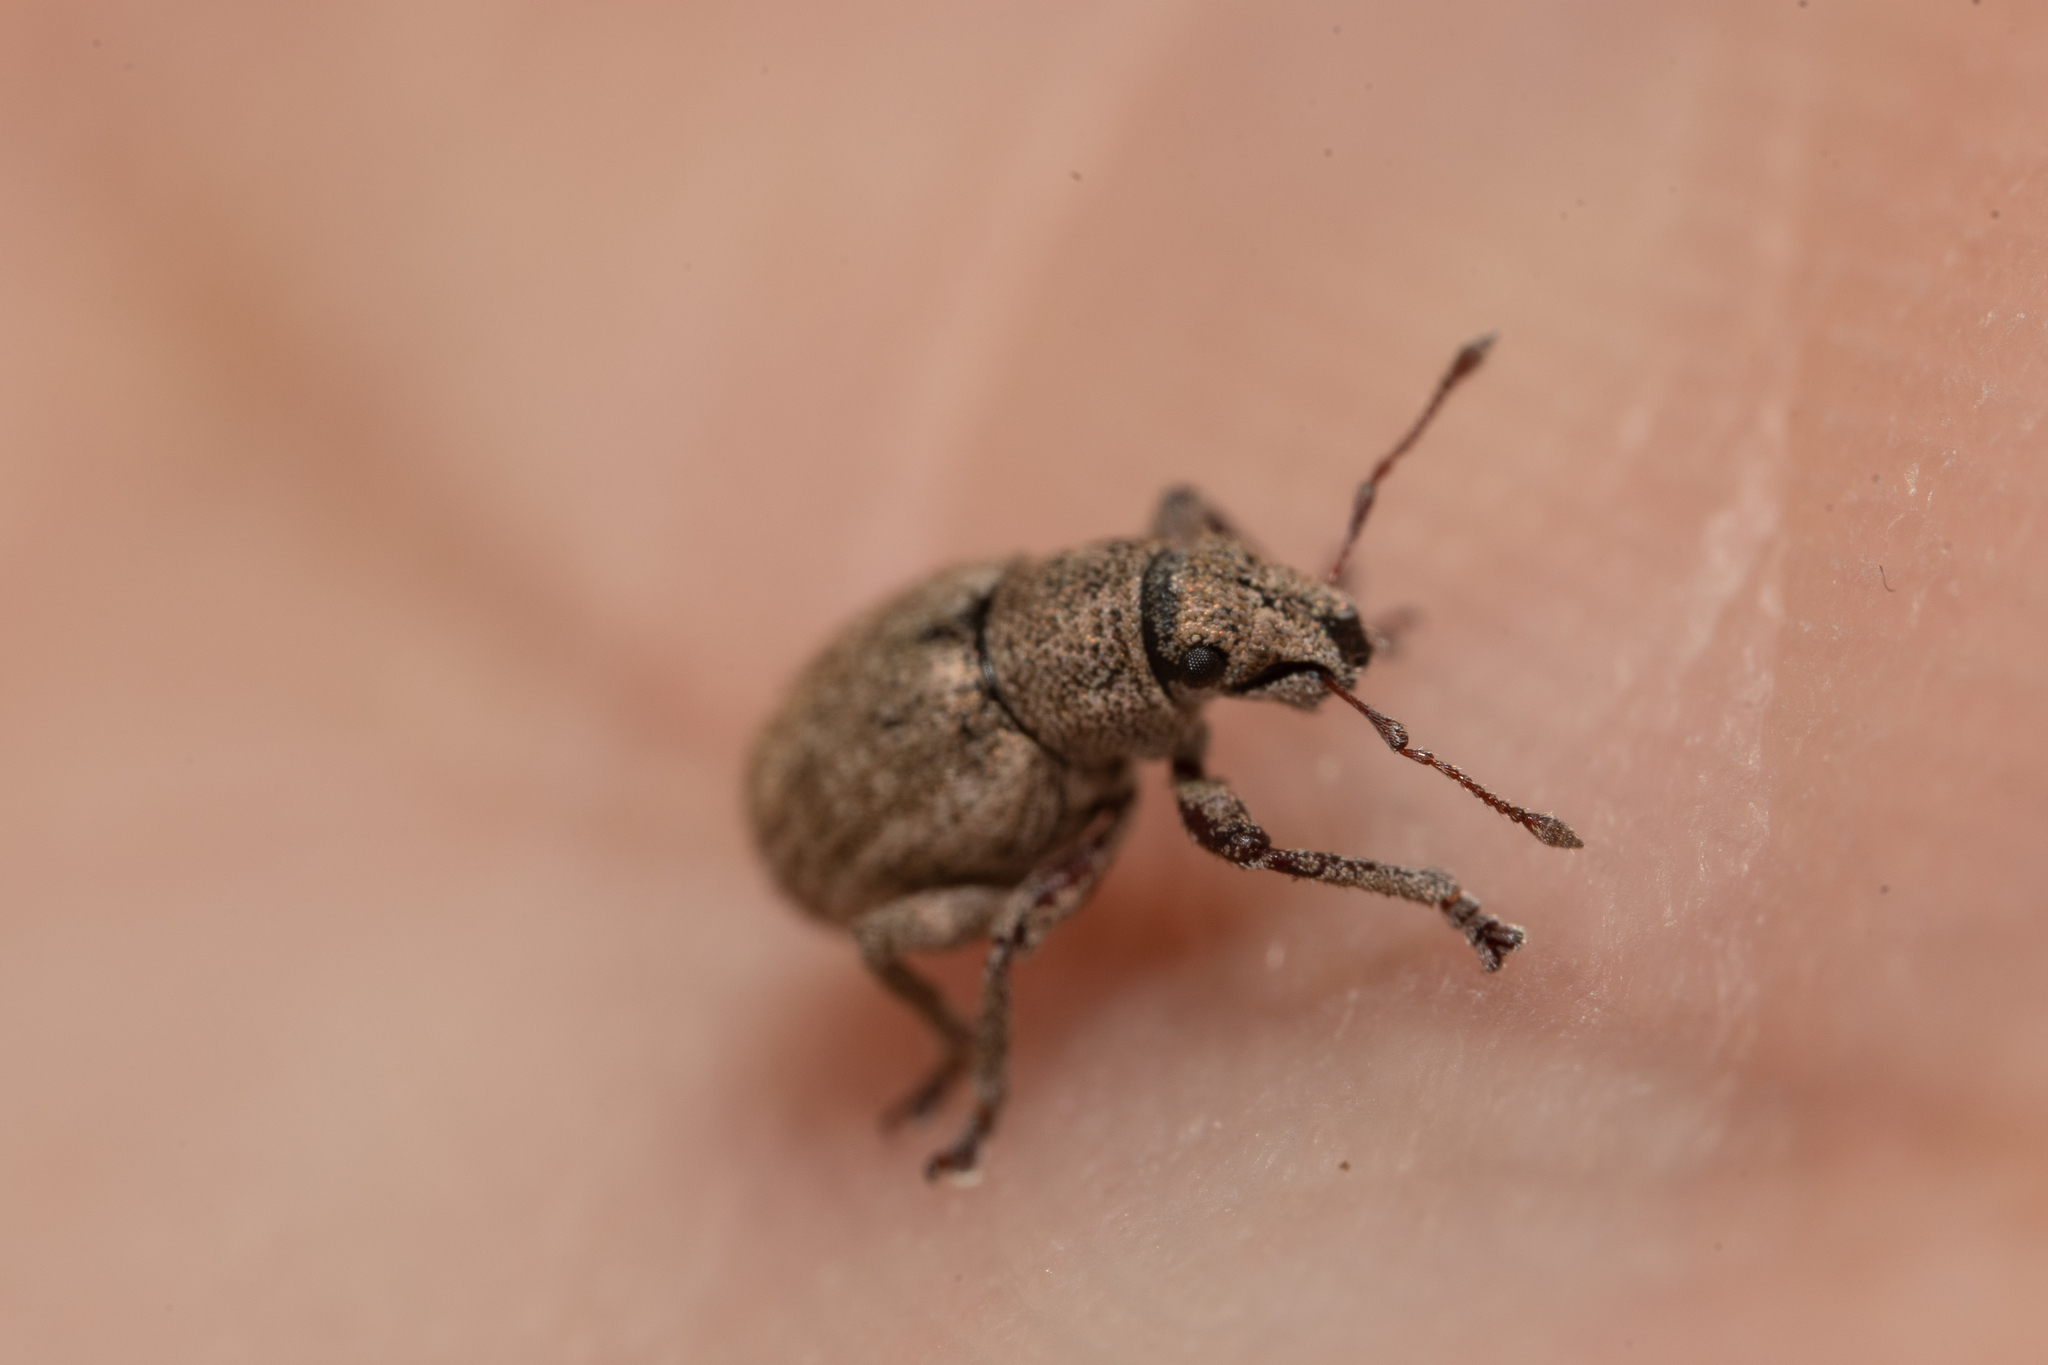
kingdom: Animalia
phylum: Arthropoda
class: Insecta
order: Coleoptera
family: Curculionidae
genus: Strophosoma
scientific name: Strophosoma capitatum
